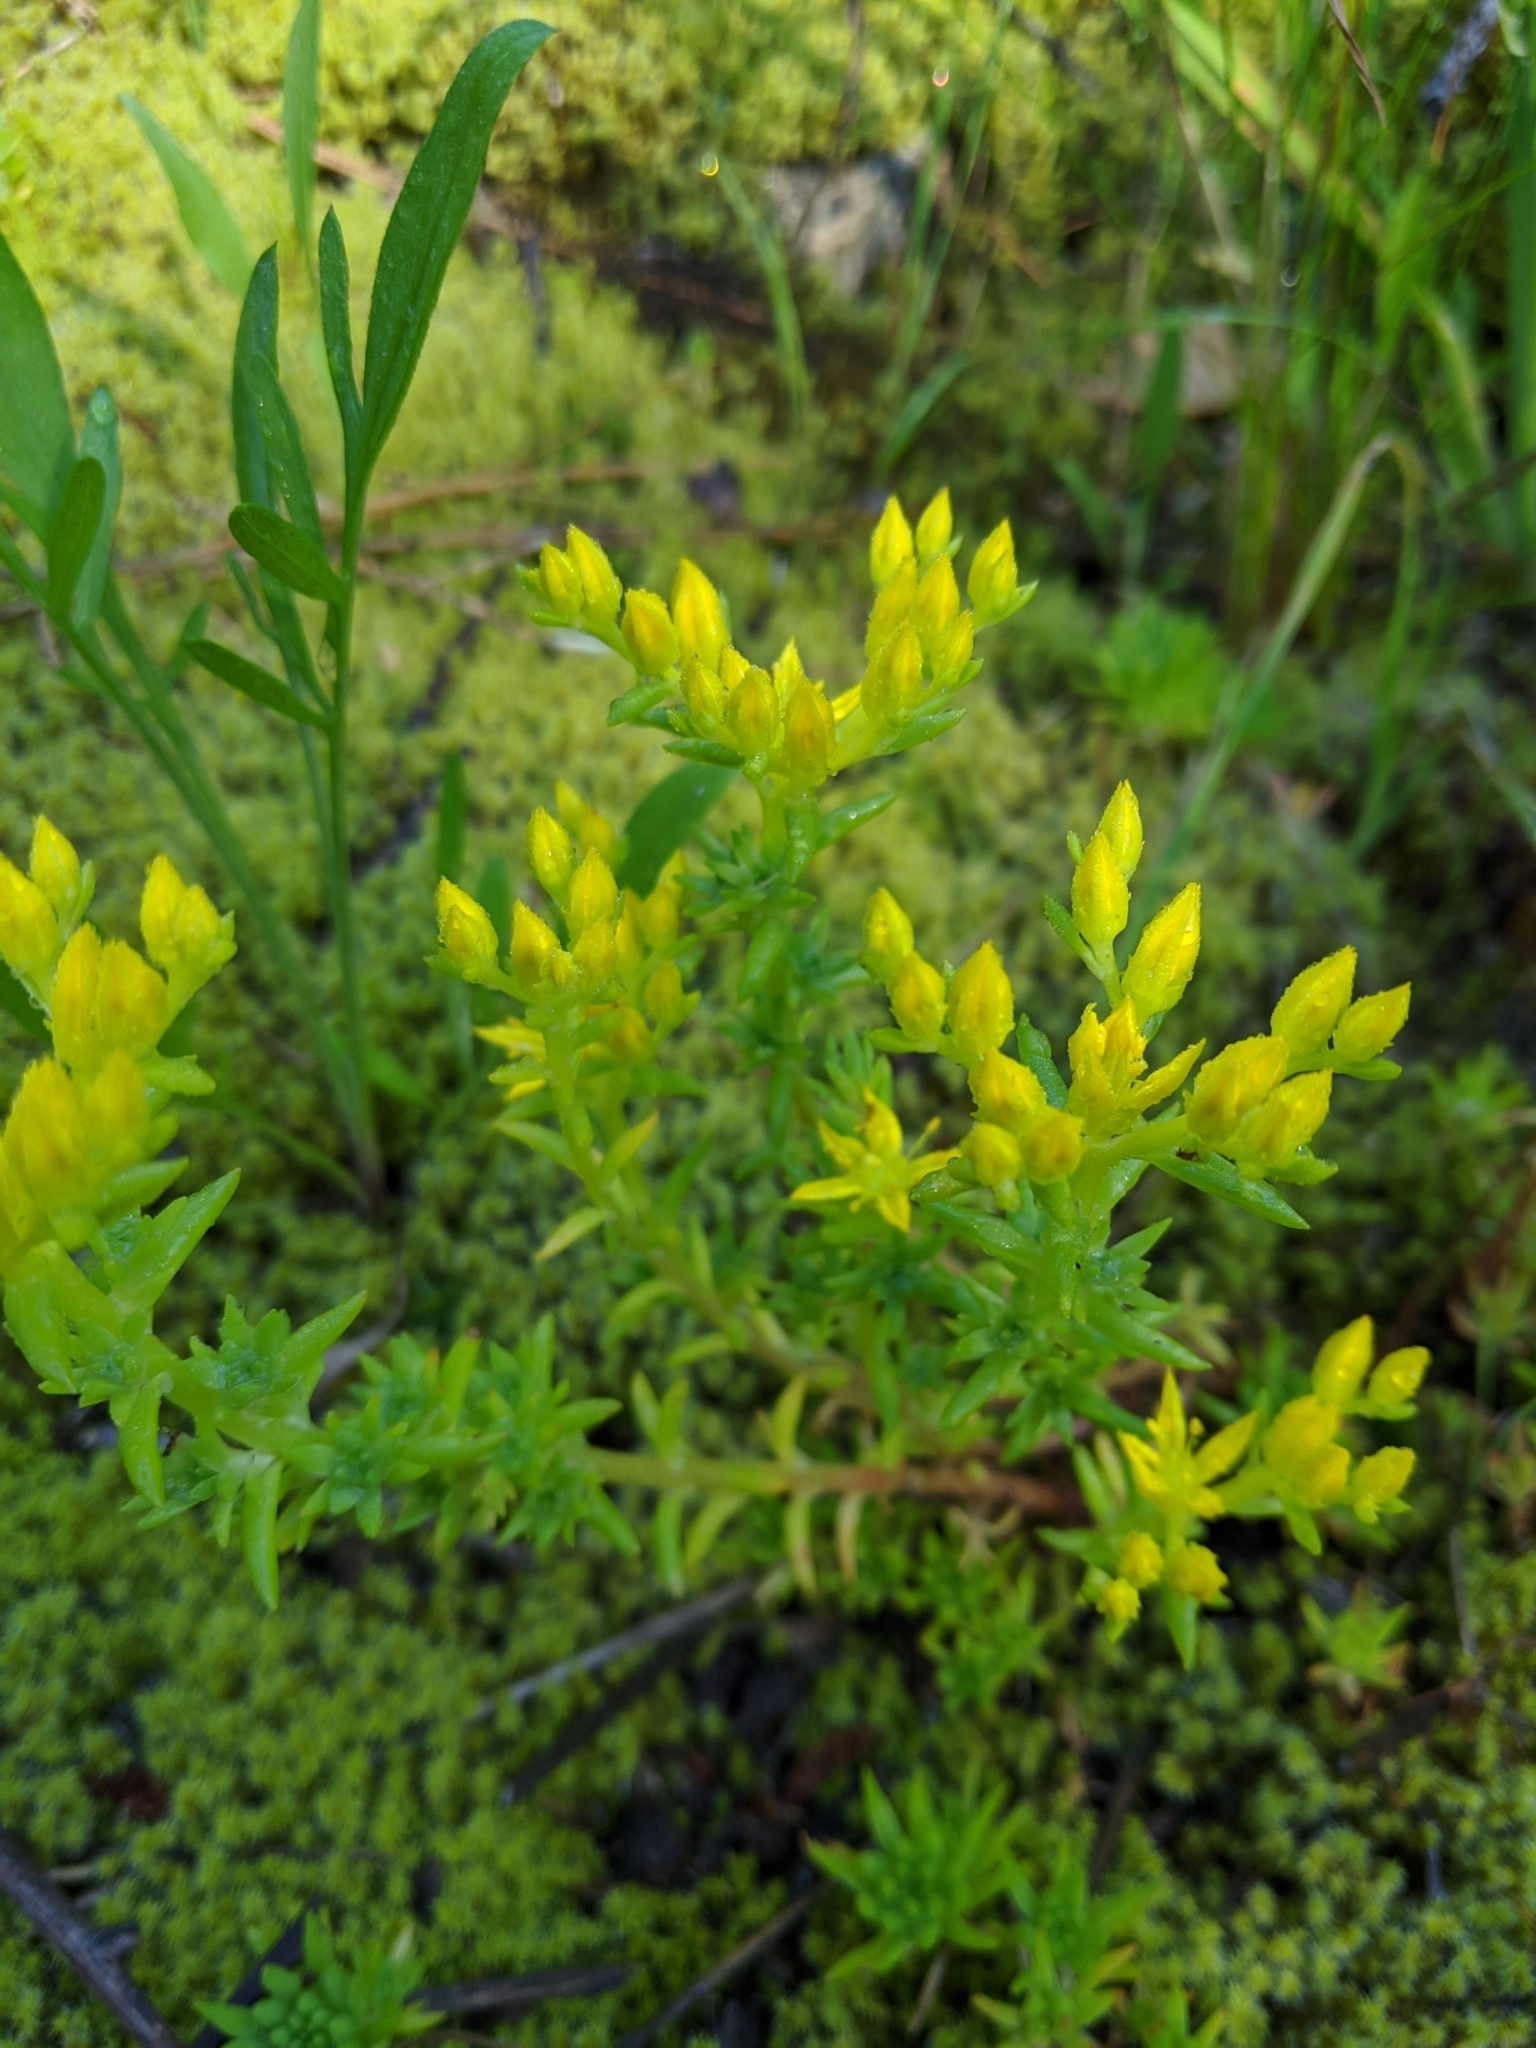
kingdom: Plantae
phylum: Tracheophyta
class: Magnoliopsida
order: Saxifragales
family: Crassulaceae
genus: Sedum
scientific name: Sedum stenopetalum
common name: Narrow-petaled stonecrop
